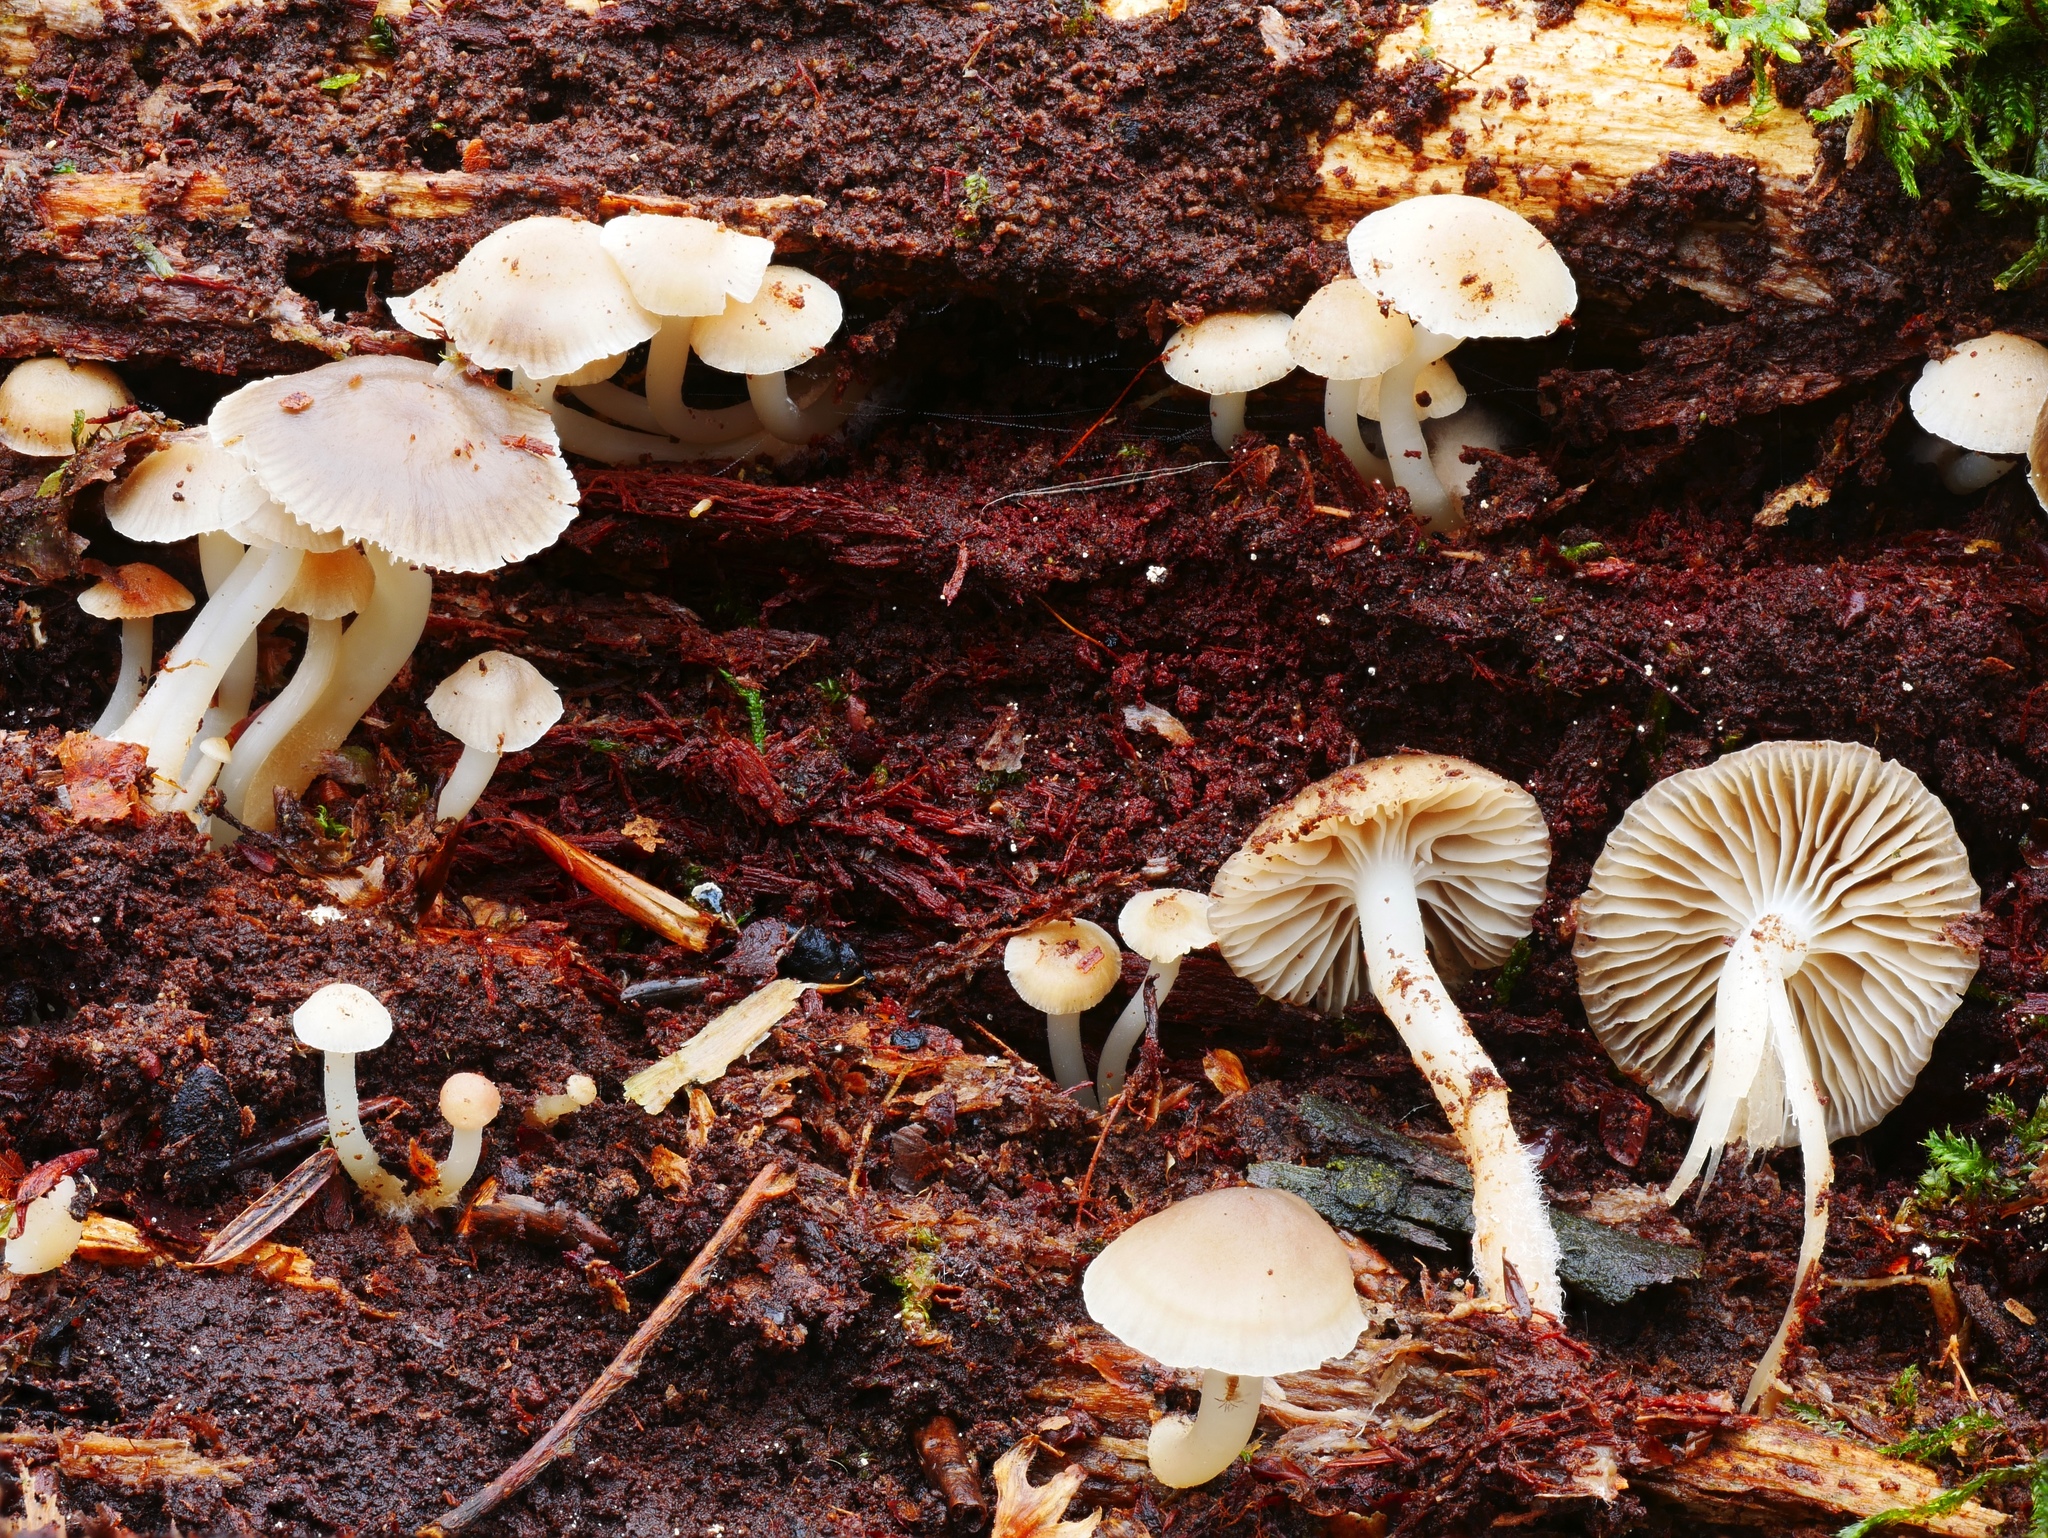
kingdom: Fungi
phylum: Basidiomycota
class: Agaricomycetes
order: Agaricales
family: Mycenaceae
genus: Mycena
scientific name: Mycena overholtsii
